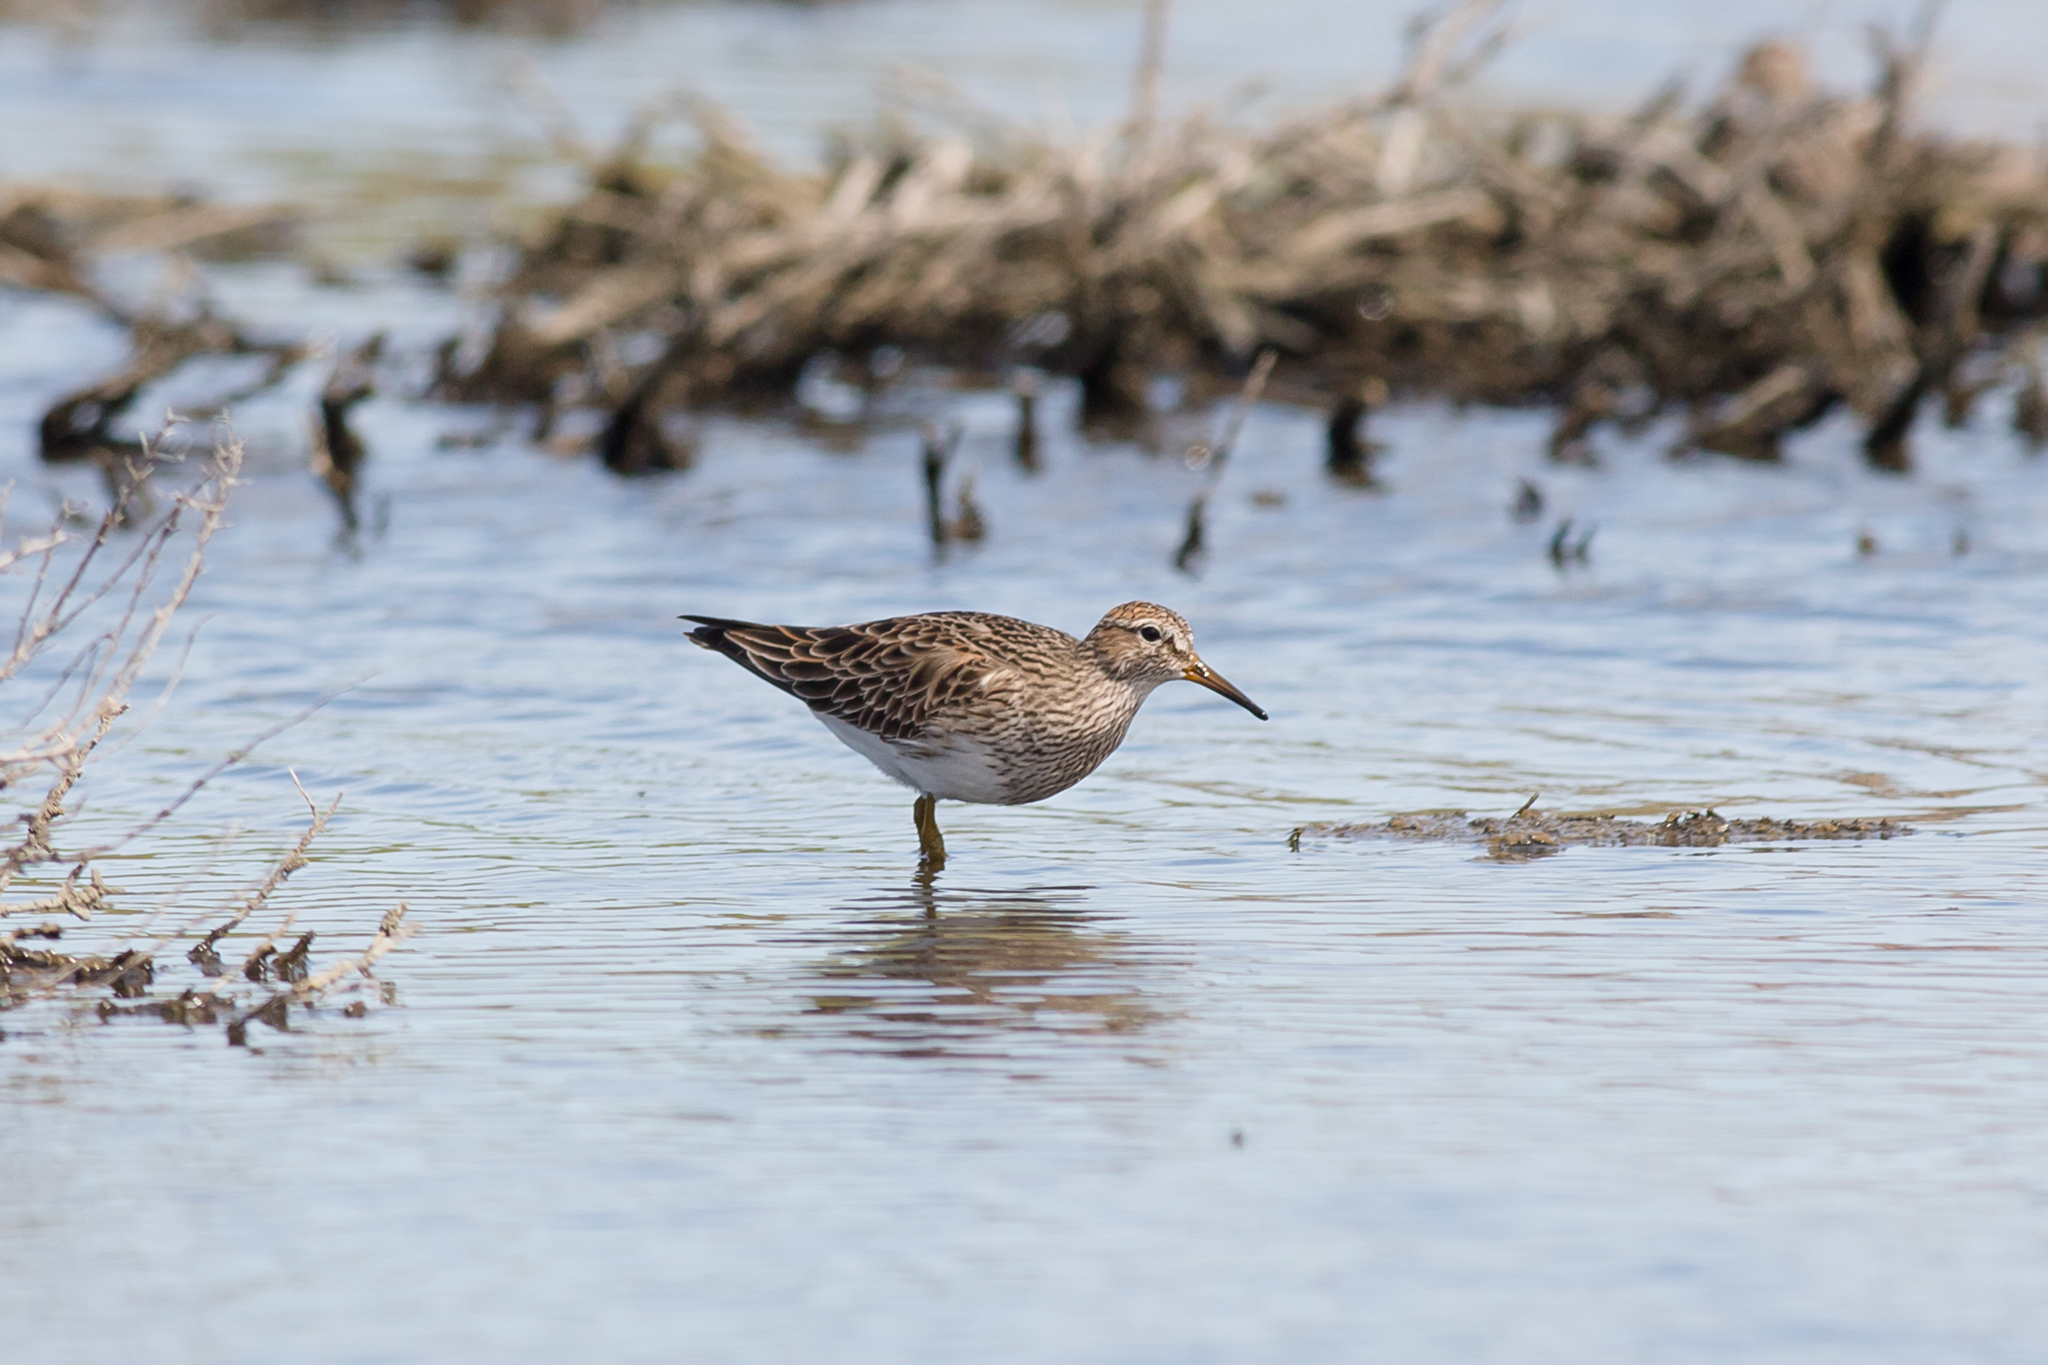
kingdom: Animalia
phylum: Chordata
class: Aves
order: Charadriiformes
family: Scolopacidae
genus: Calidris
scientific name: Calidris melanotos
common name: Pectoral sandpiper
